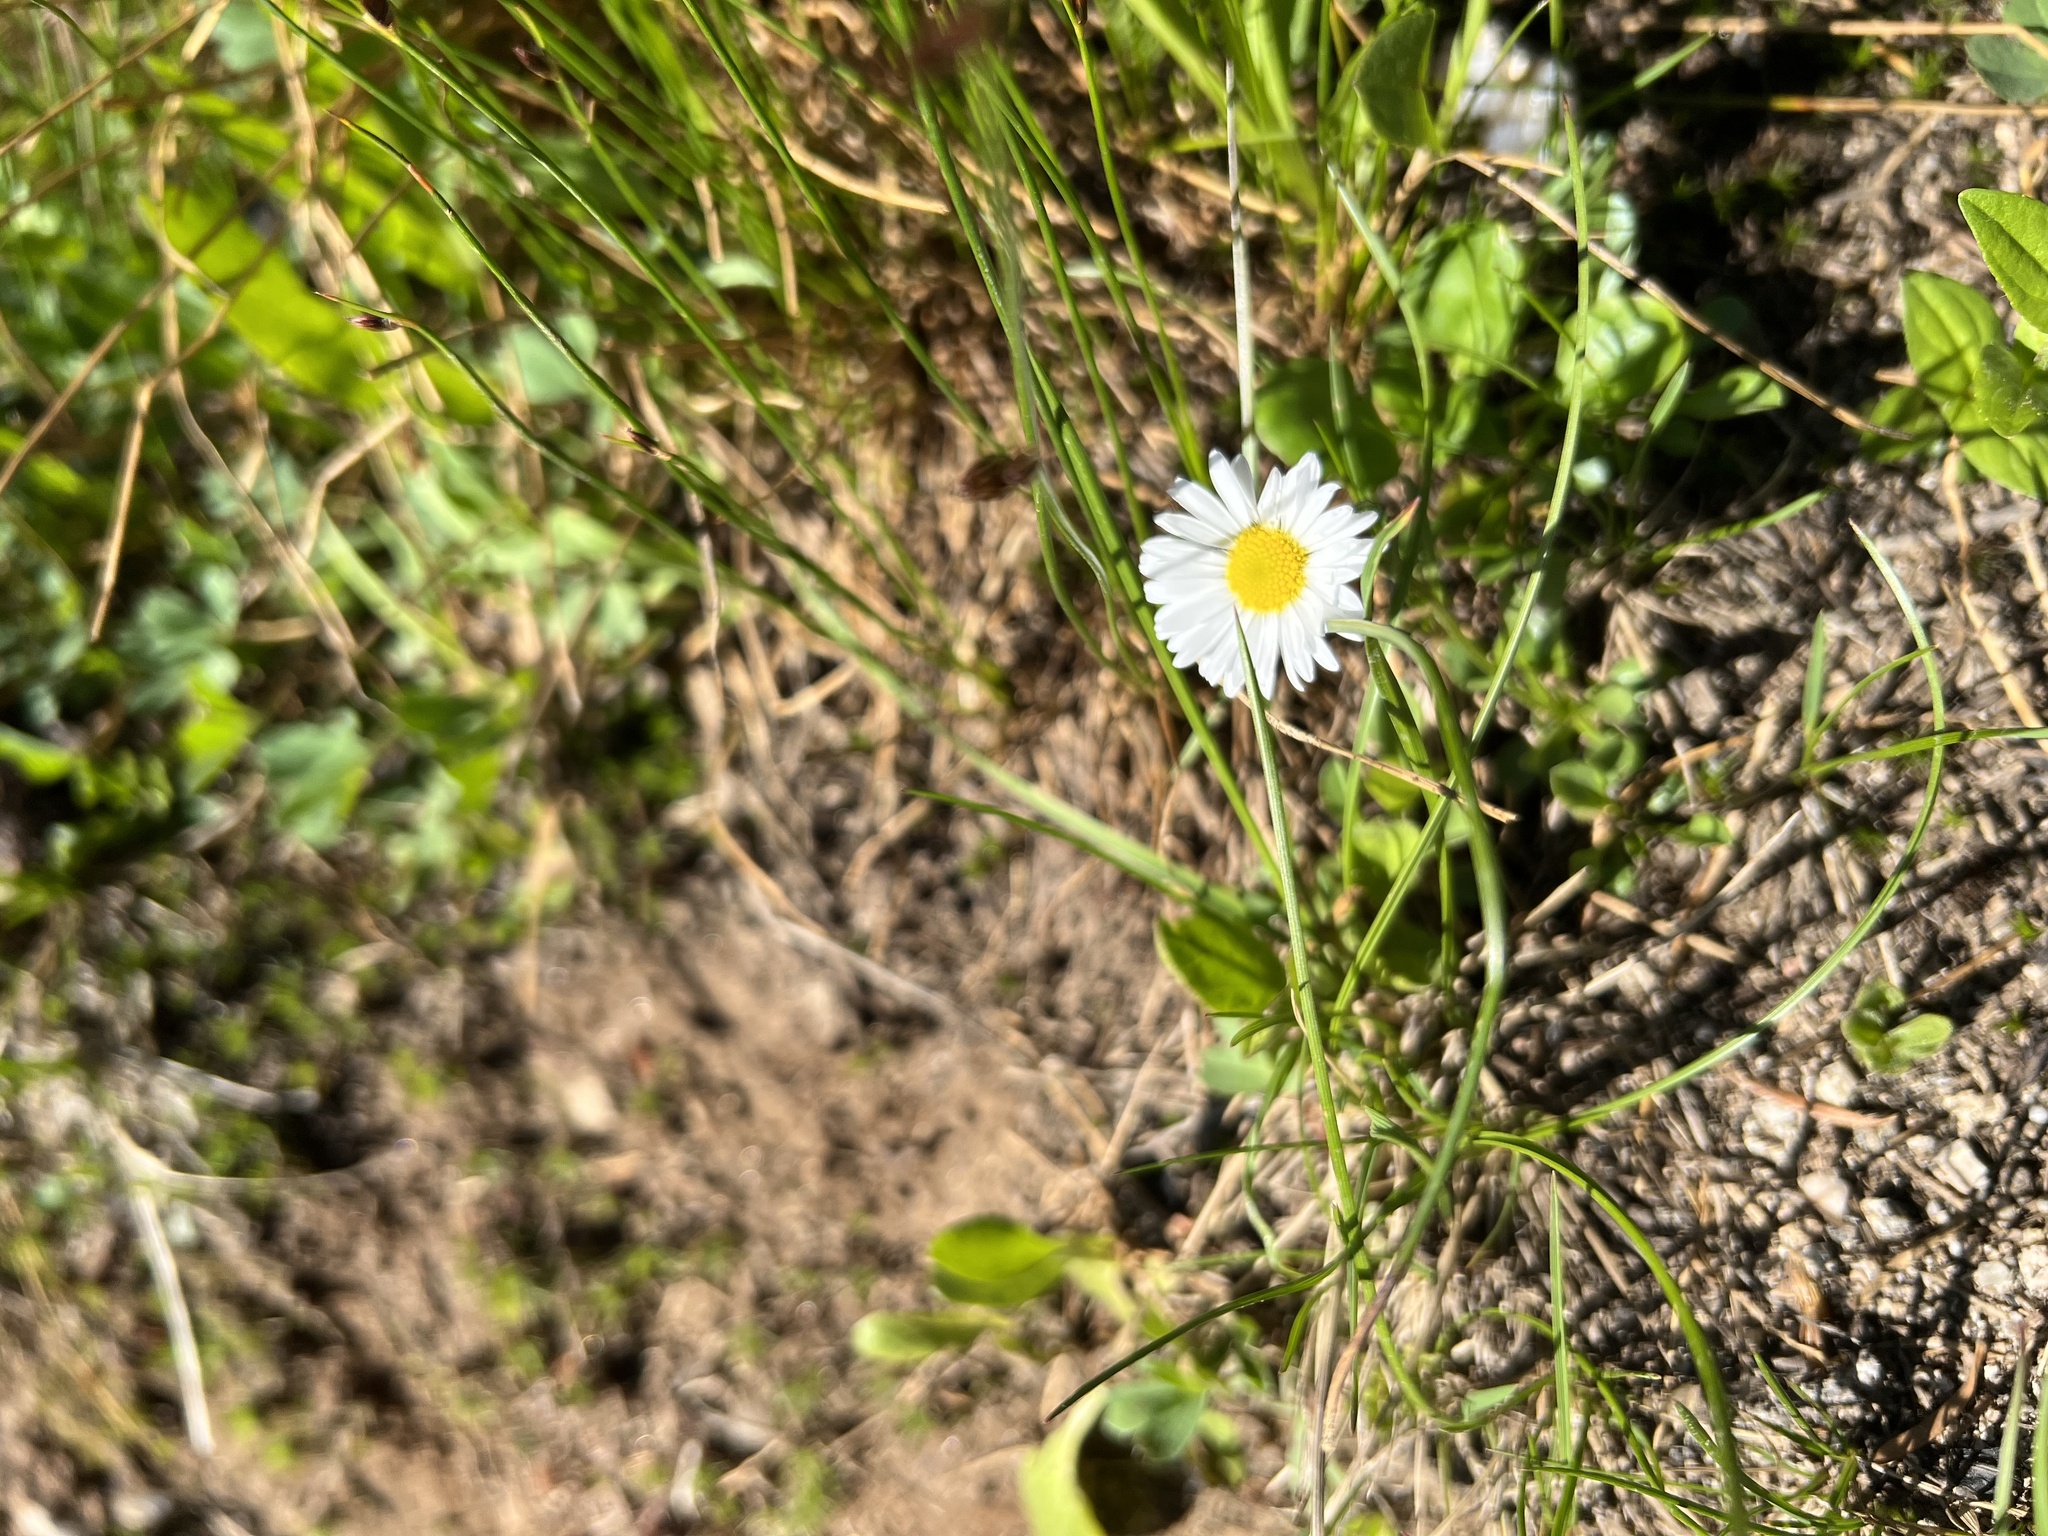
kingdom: Plantae
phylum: Tracheophyta
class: Magnoliopsida
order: Asterales
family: Asteraceae
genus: Bellis
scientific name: Bellis perennis
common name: Lawndaisy
